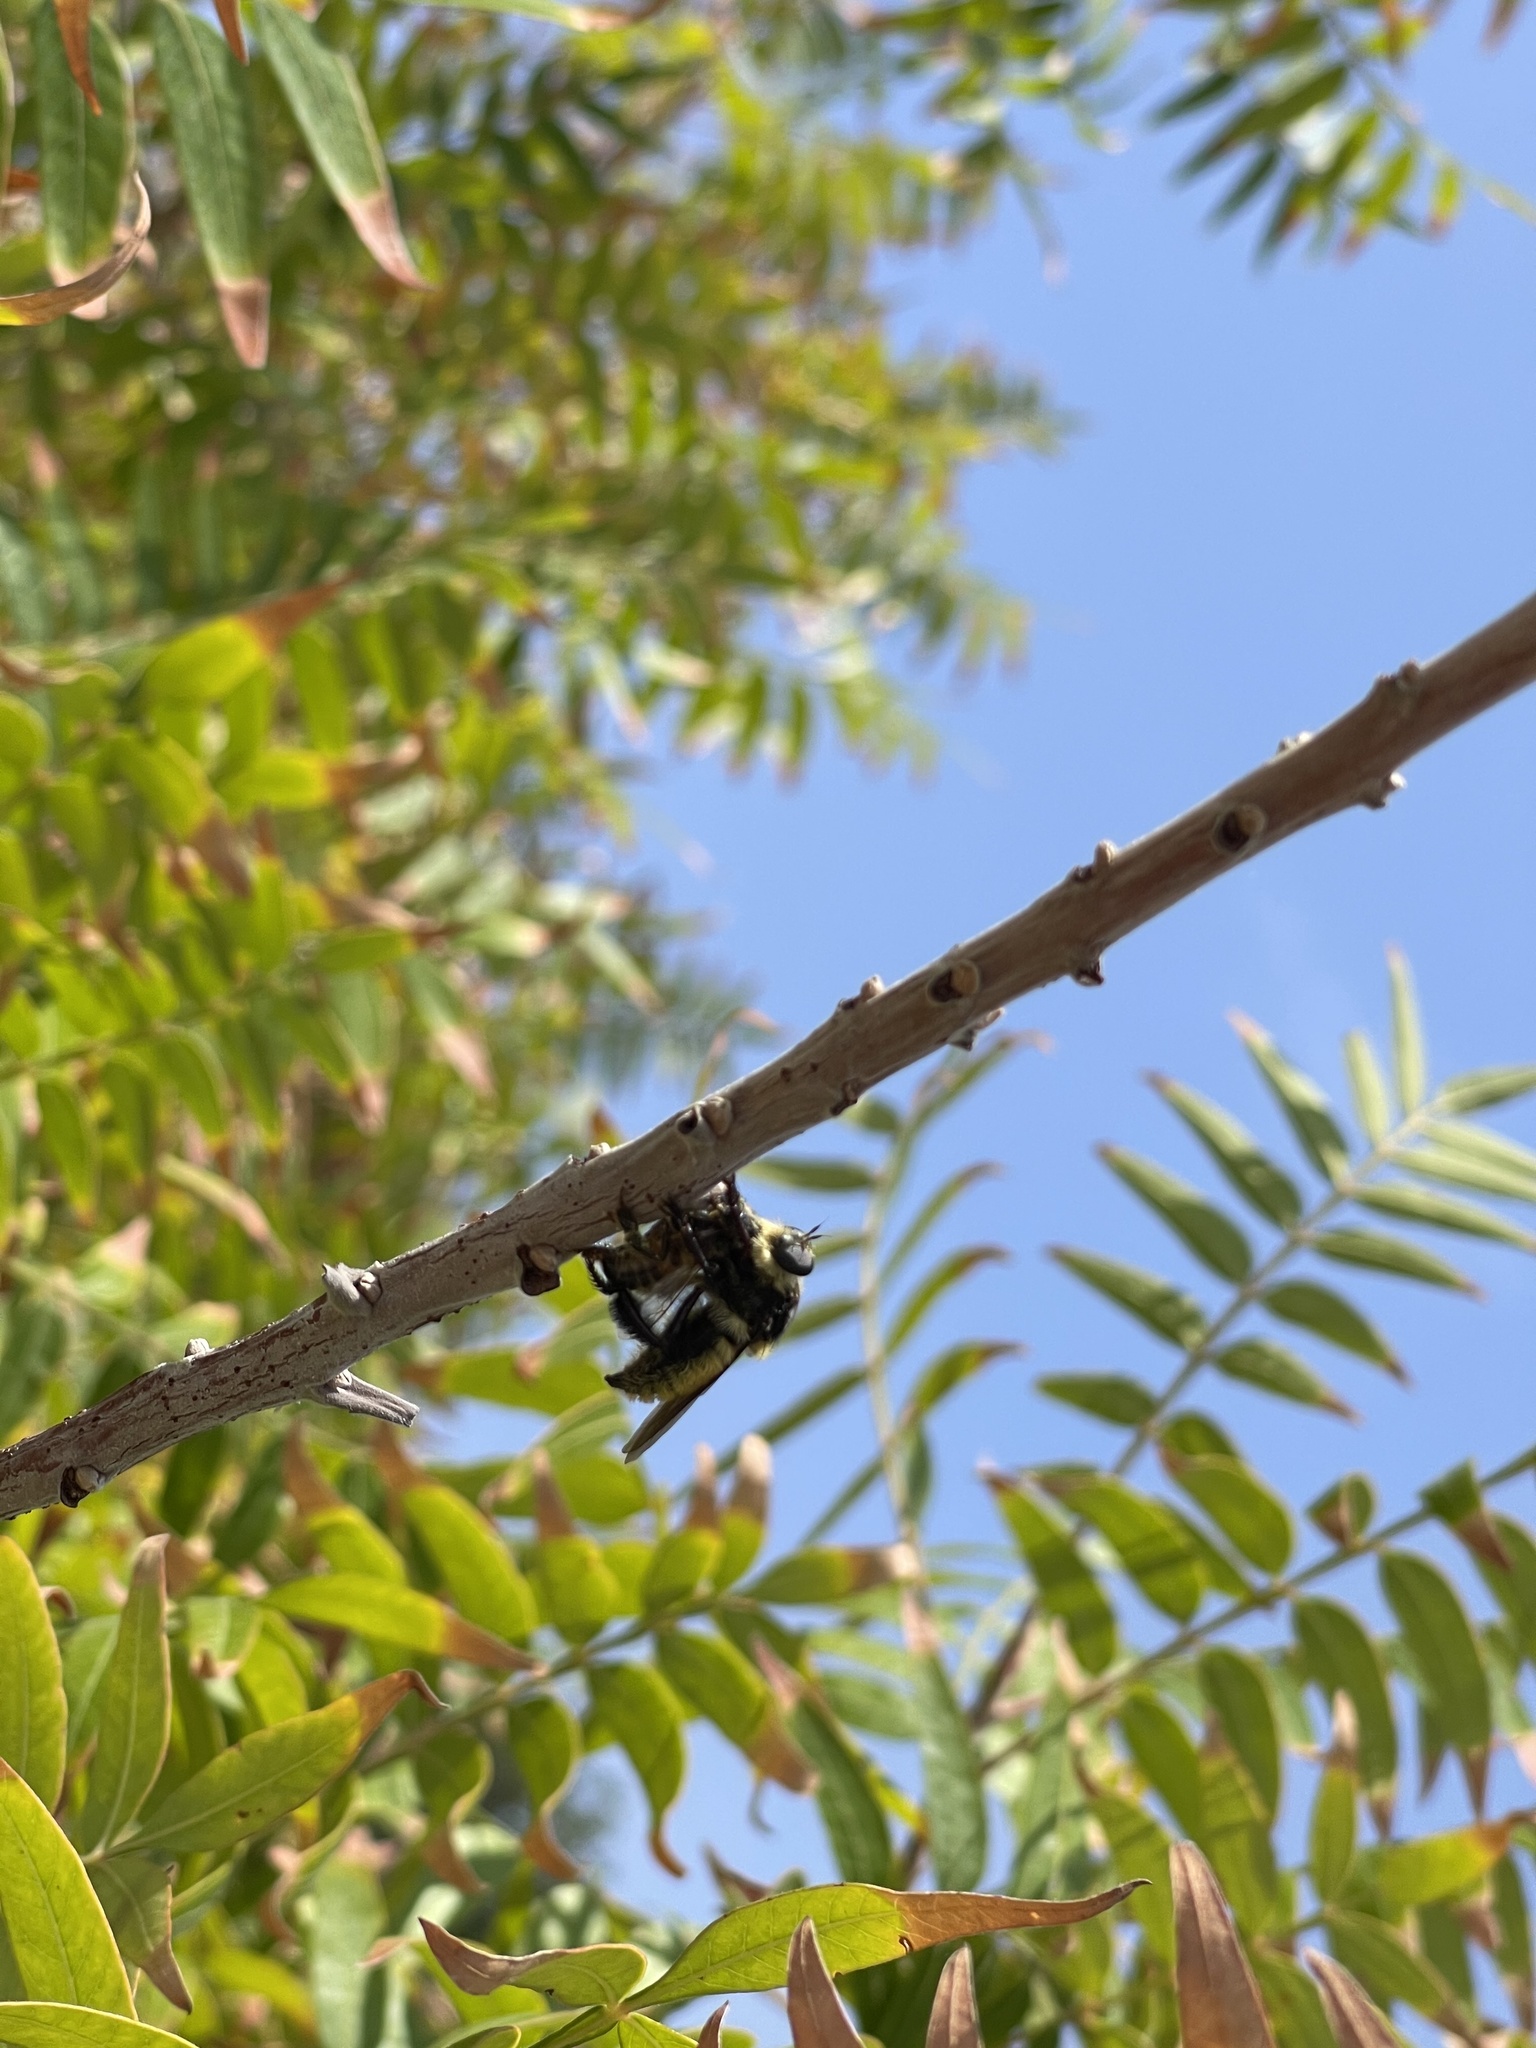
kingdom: Animalia
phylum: Arthropoda
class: Insecta
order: Diptera
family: Asilidae
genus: Mallophora
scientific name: Mallophora fautrix
